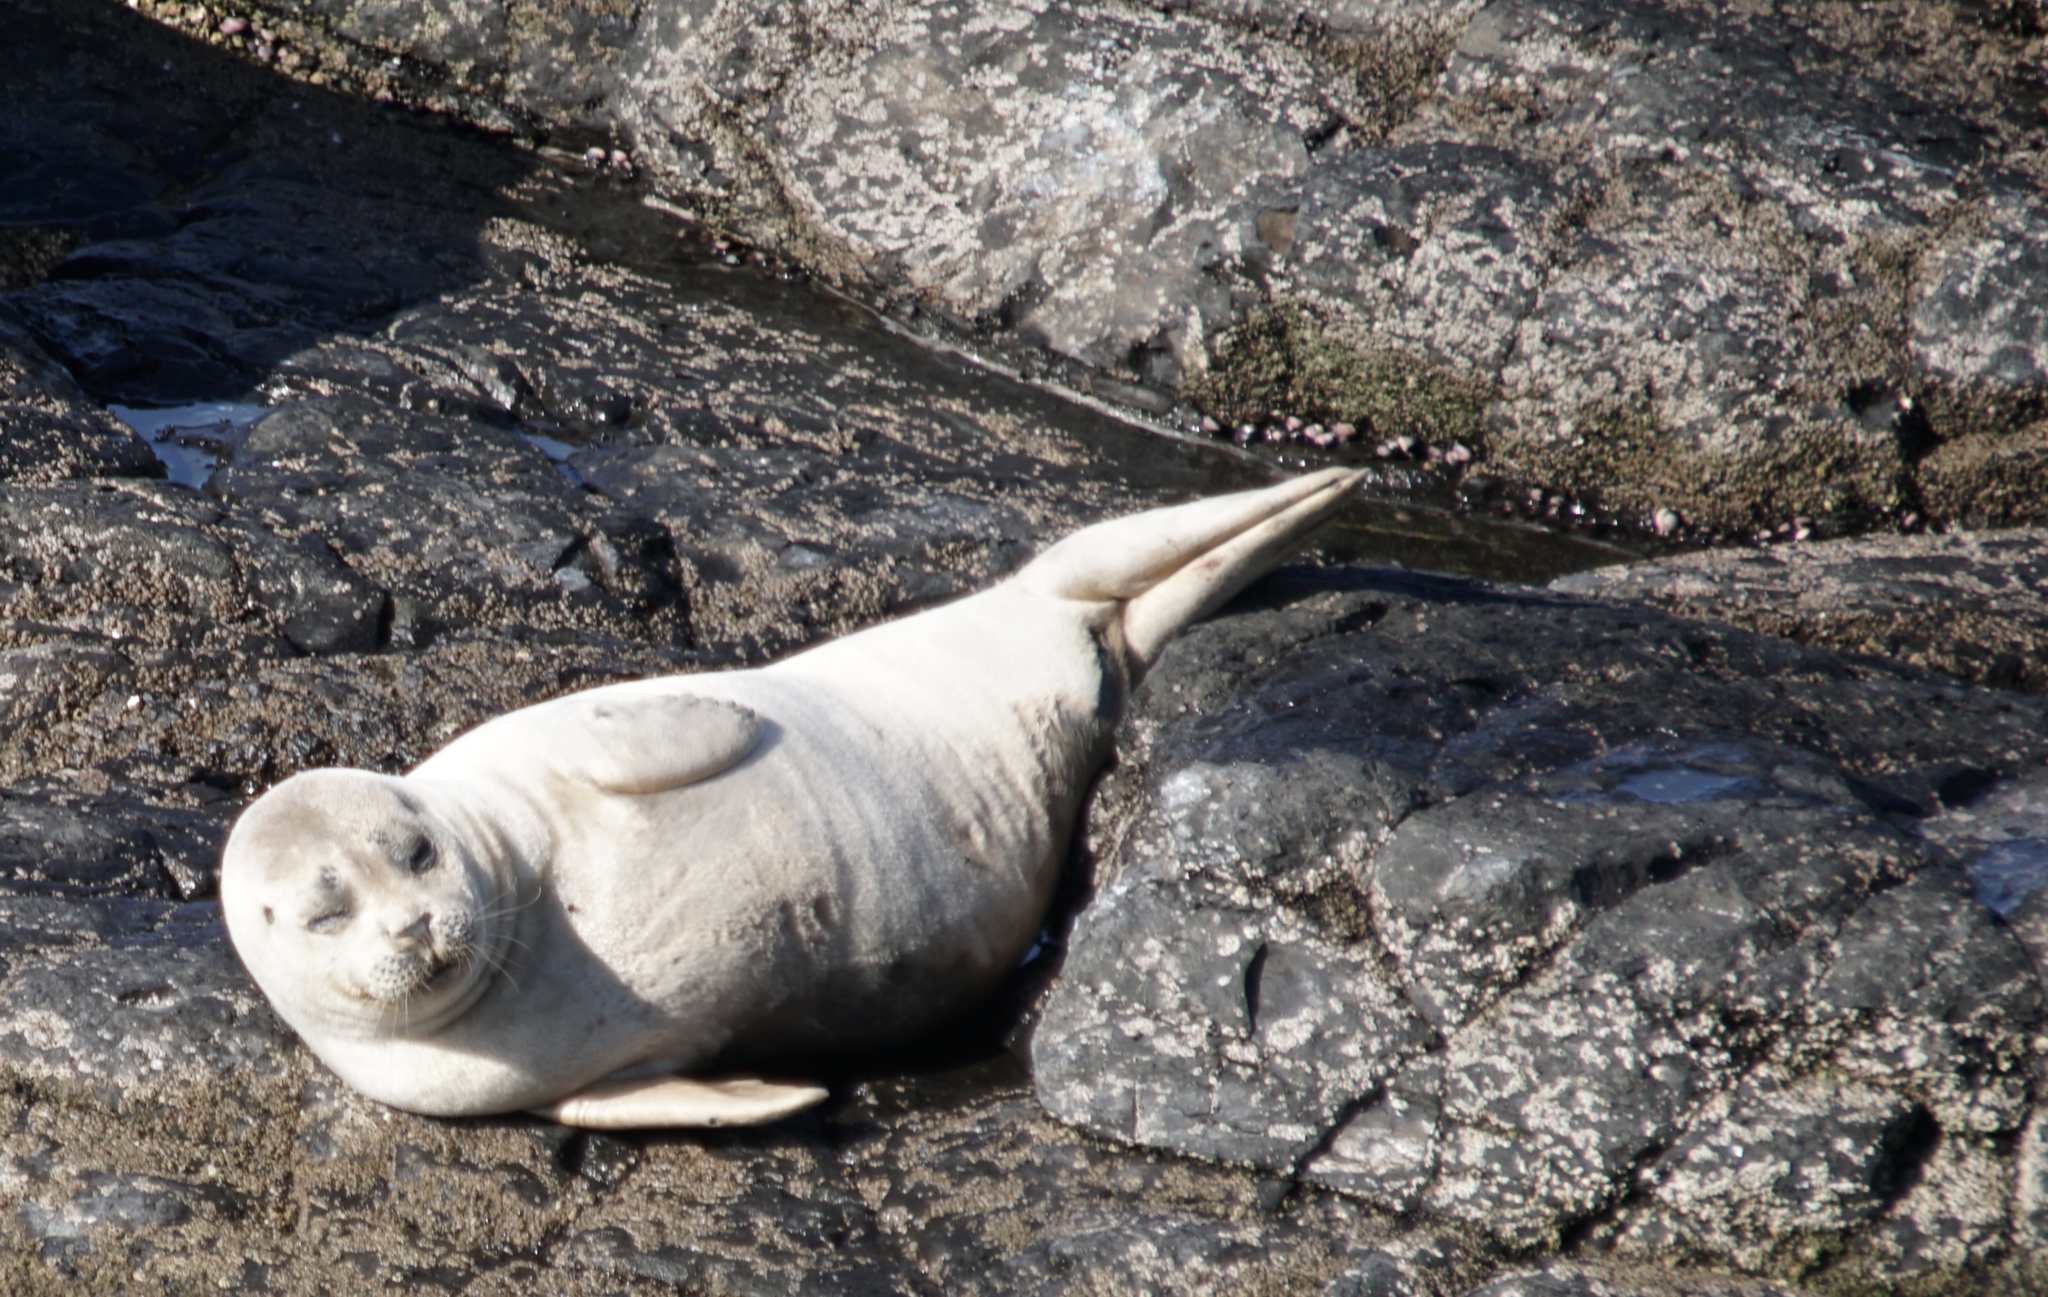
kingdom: Animalia
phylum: Chordata
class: Mammalia
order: Carnivora
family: Phocidae
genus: Phoca
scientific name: Phoca vitulina
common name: Harbor seal
